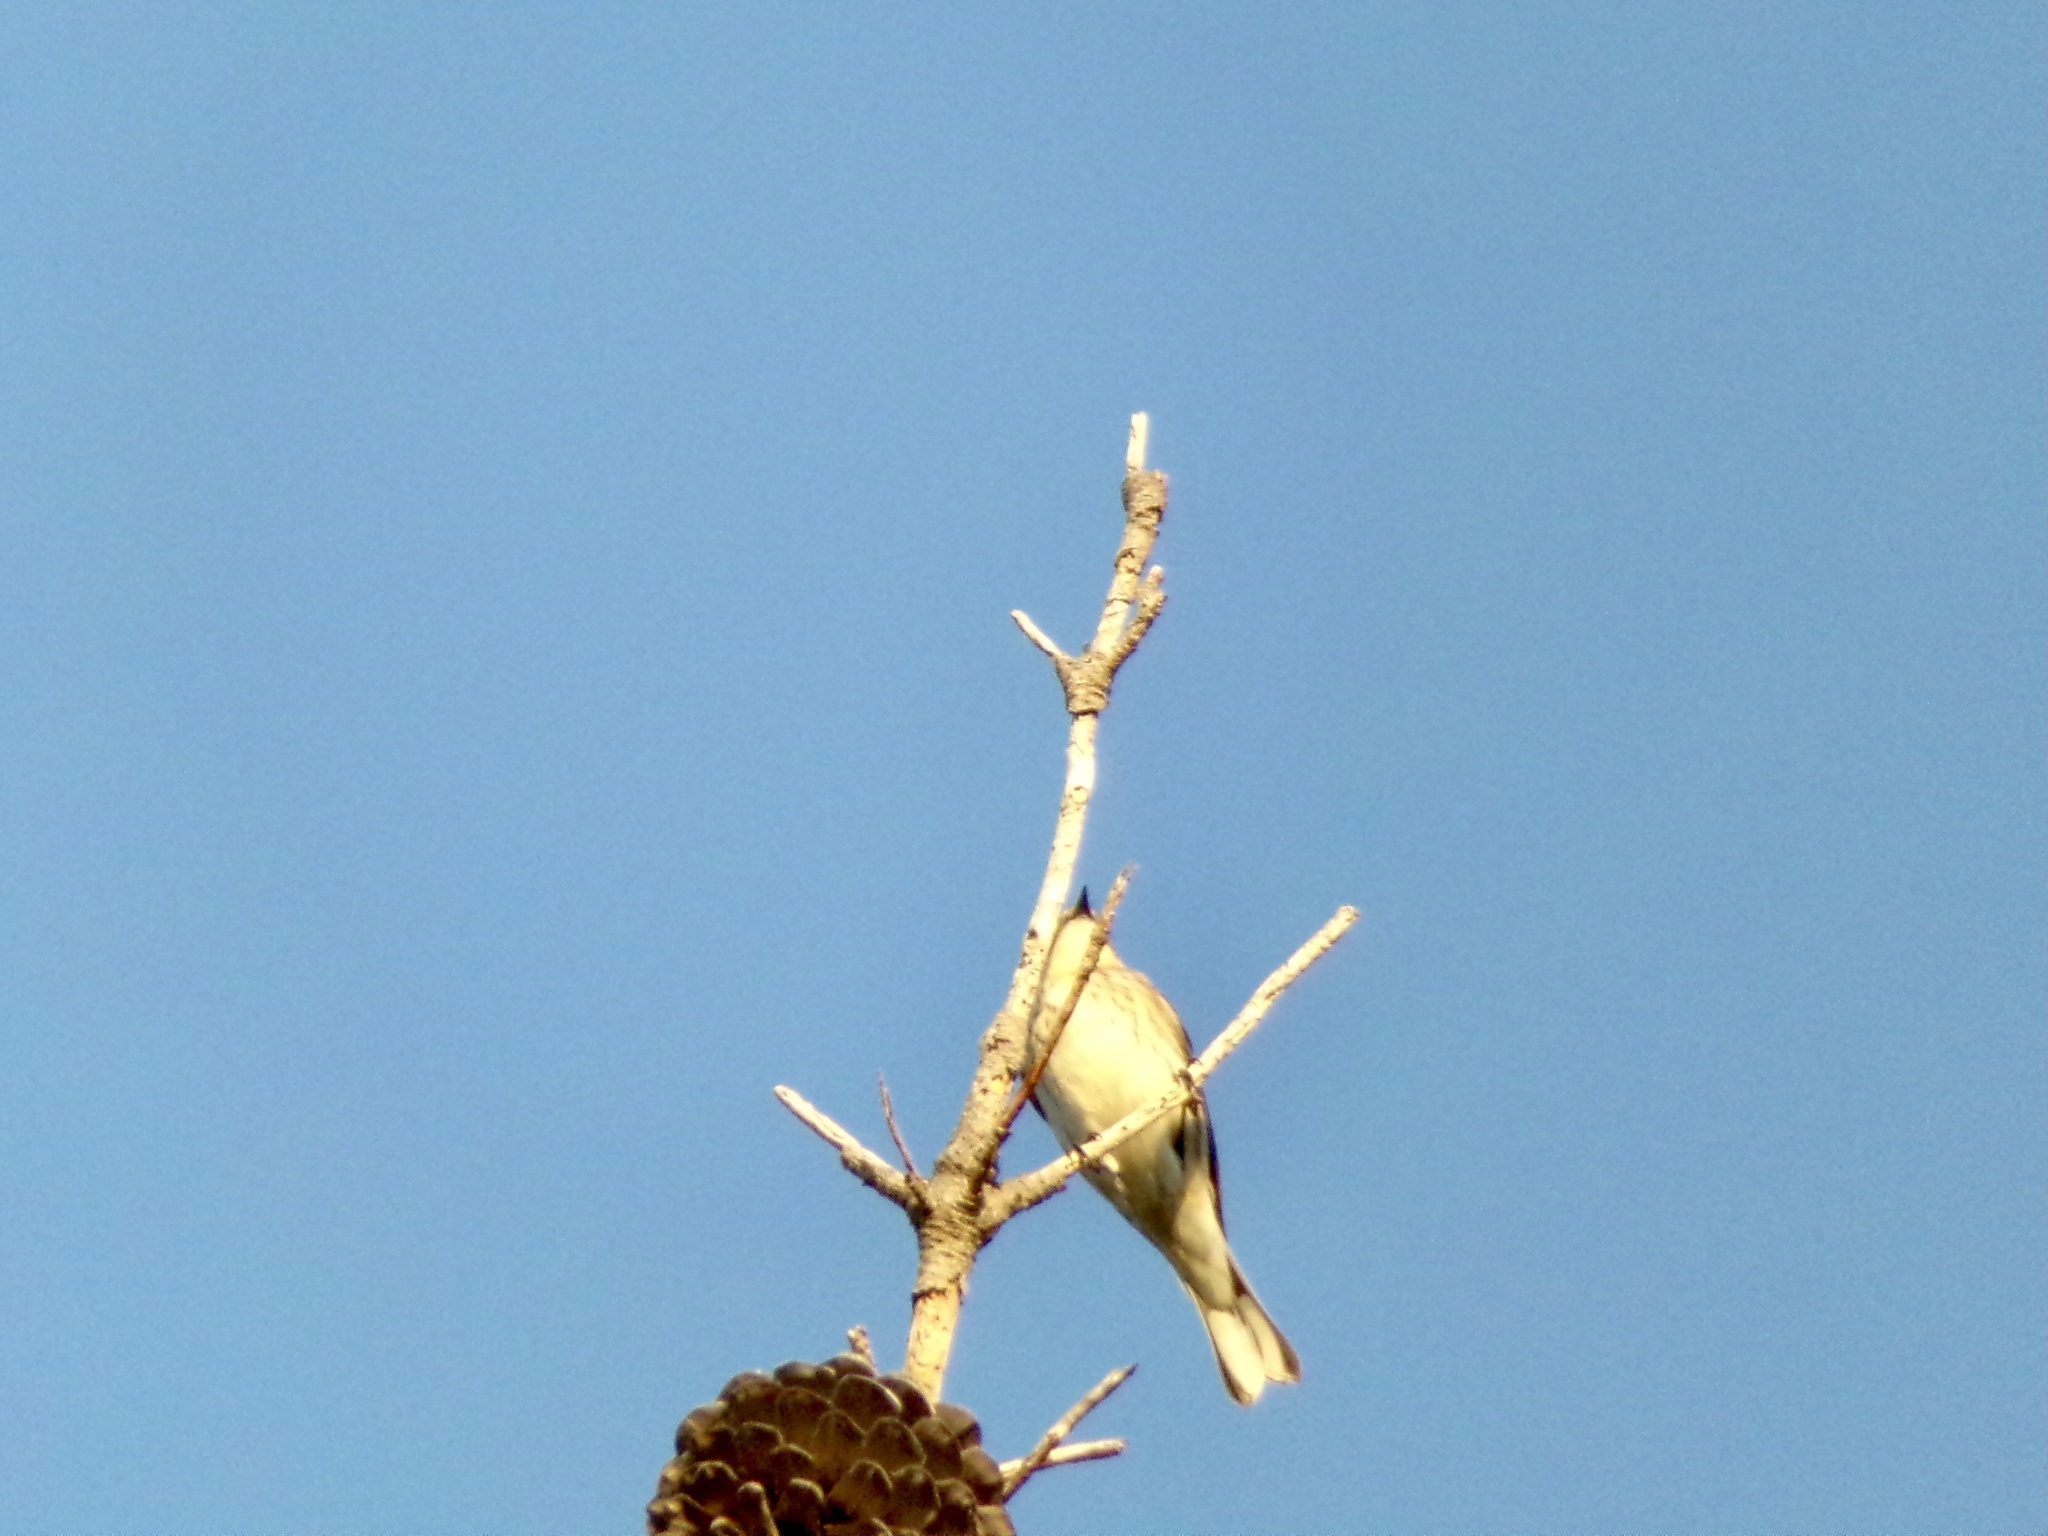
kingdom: Animalia
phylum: Chordata
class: Aves
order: Passeriformes
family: Parulidae
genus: Setophaga
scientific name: Setophaga coronata
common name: Myrtle warbler
